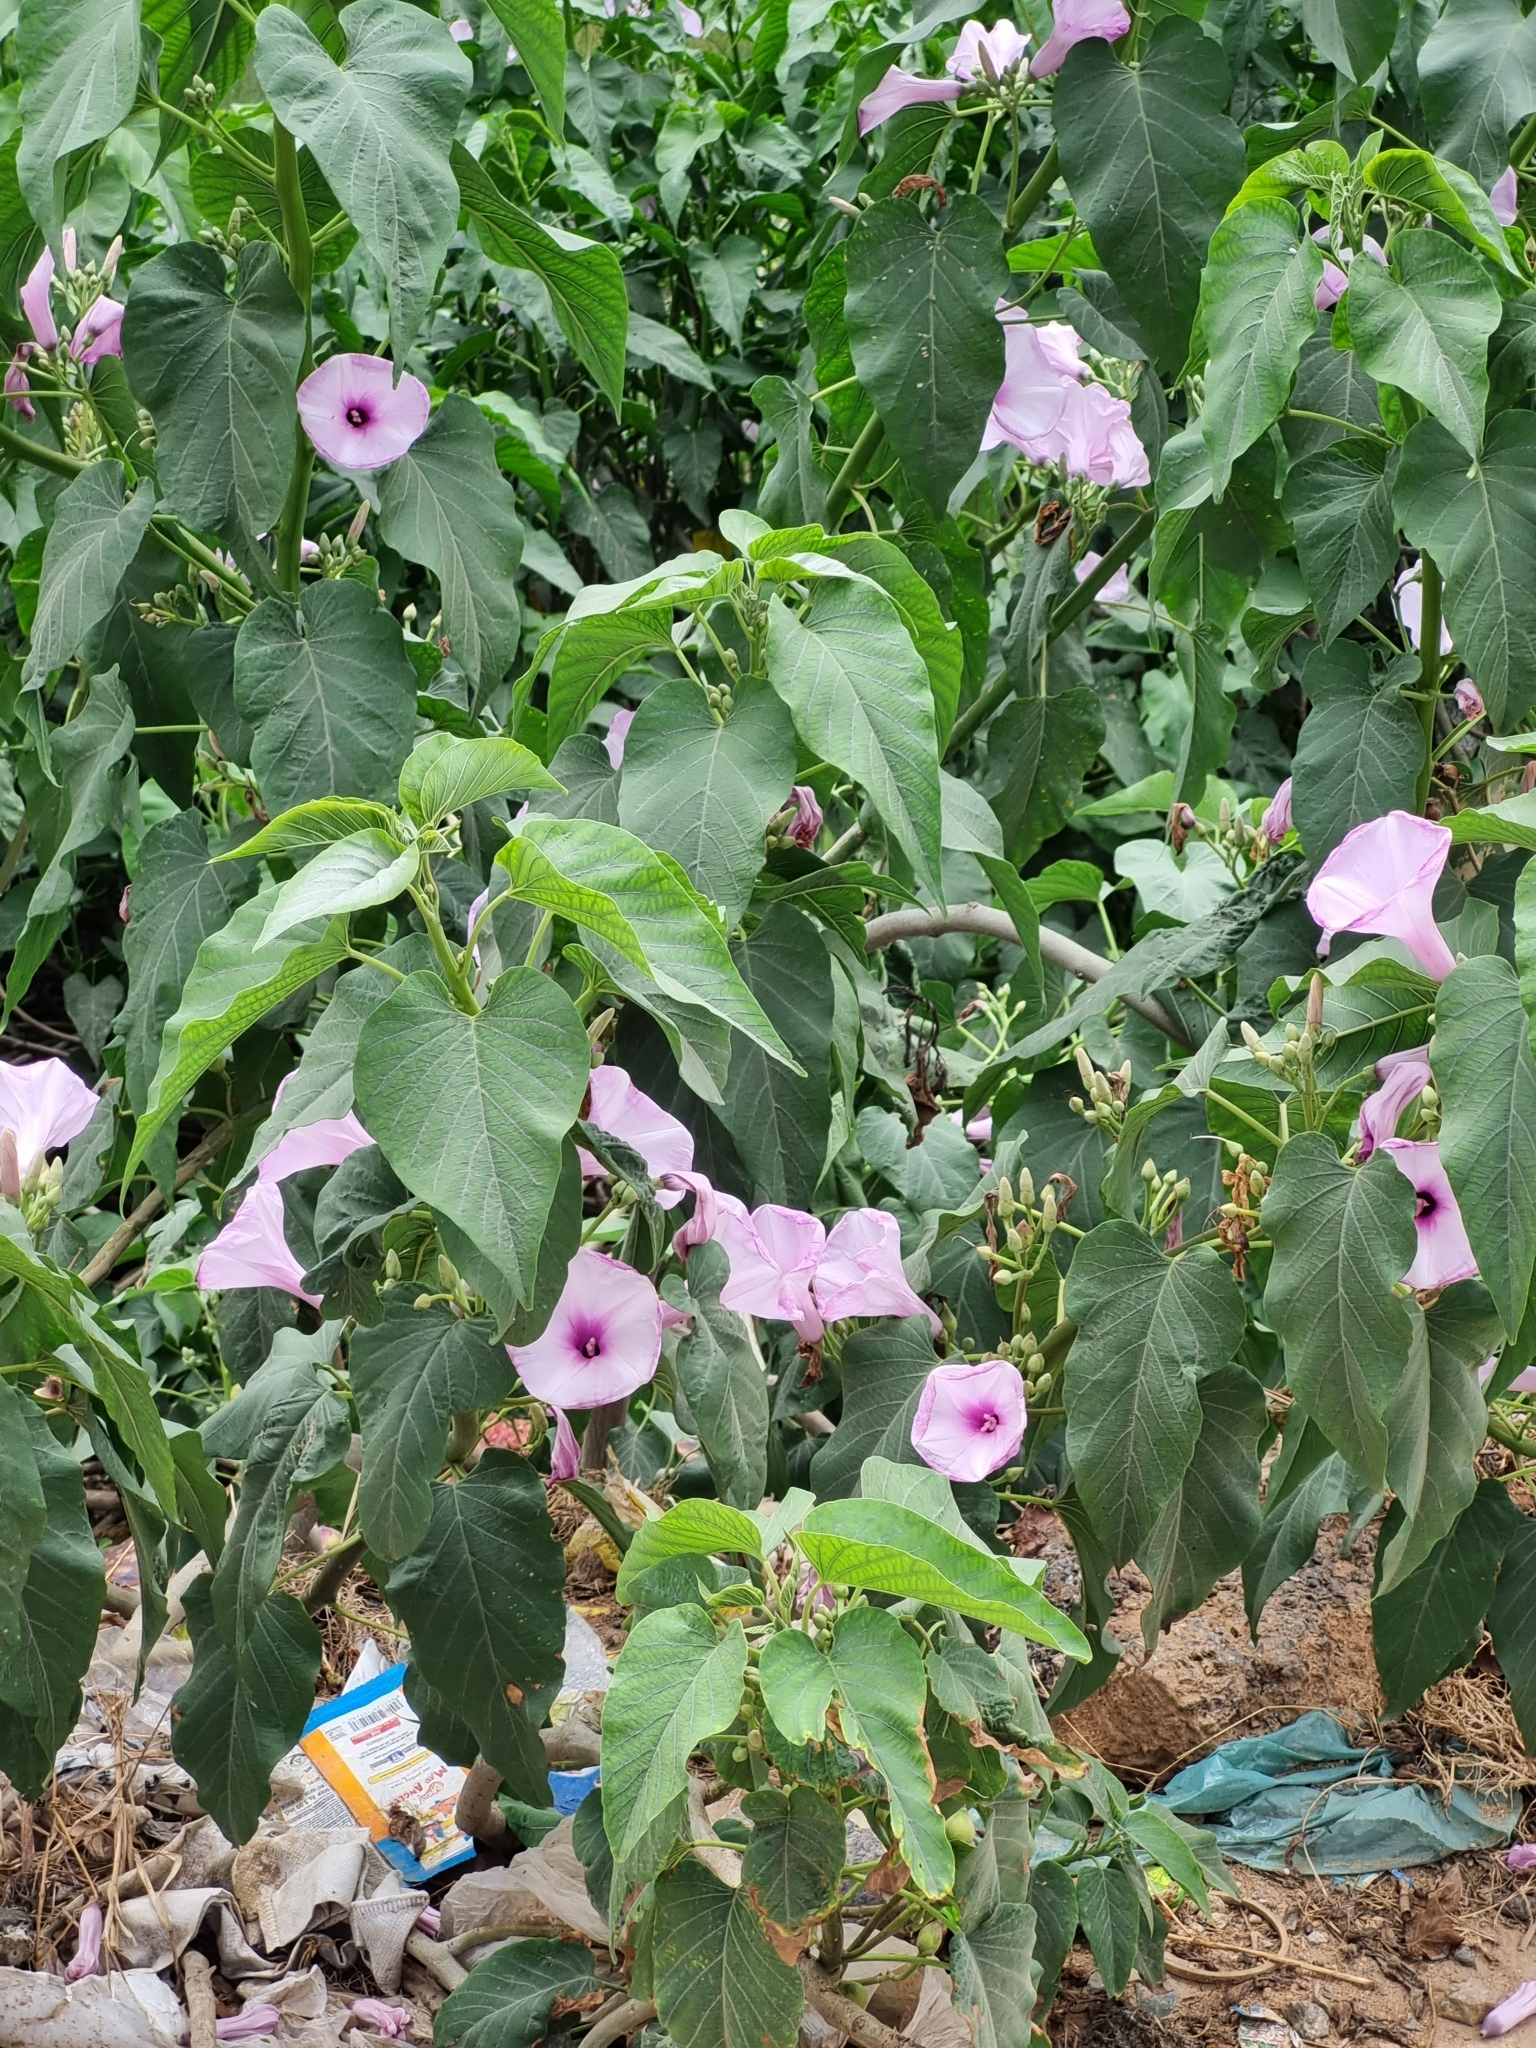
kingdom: Plantae
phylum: Tracheophyta
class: Magnoliopsida
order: Solanales
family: Convolvulaceae
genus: Ipomoea
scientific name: Ipomoea carnea
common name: Morning-glory
